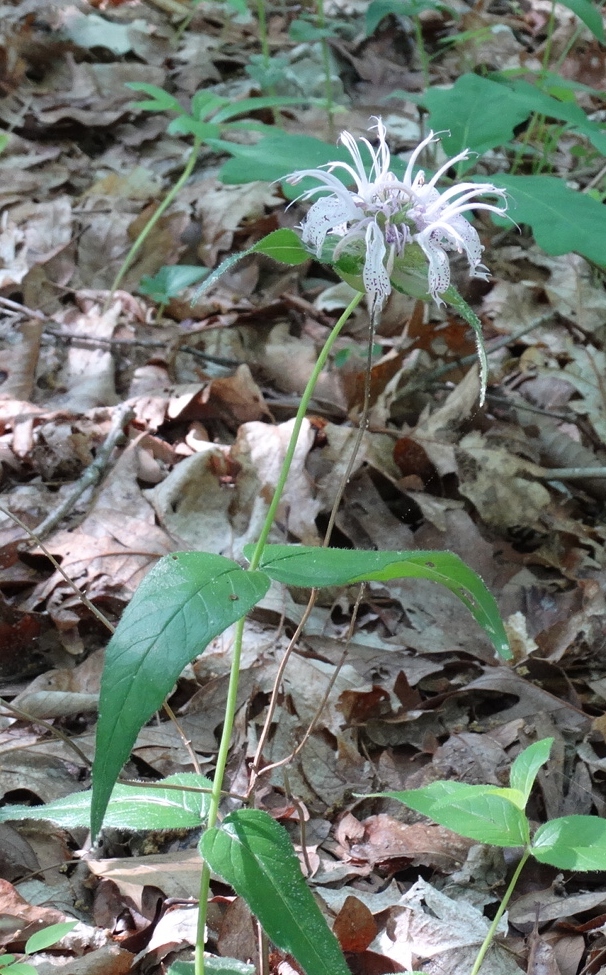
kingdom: Plantae
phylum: Tracheophyta
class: Magnoliopsida
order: Lamiales
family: Lamiaceae
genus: Monarda
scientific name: Monarda bradburiana
